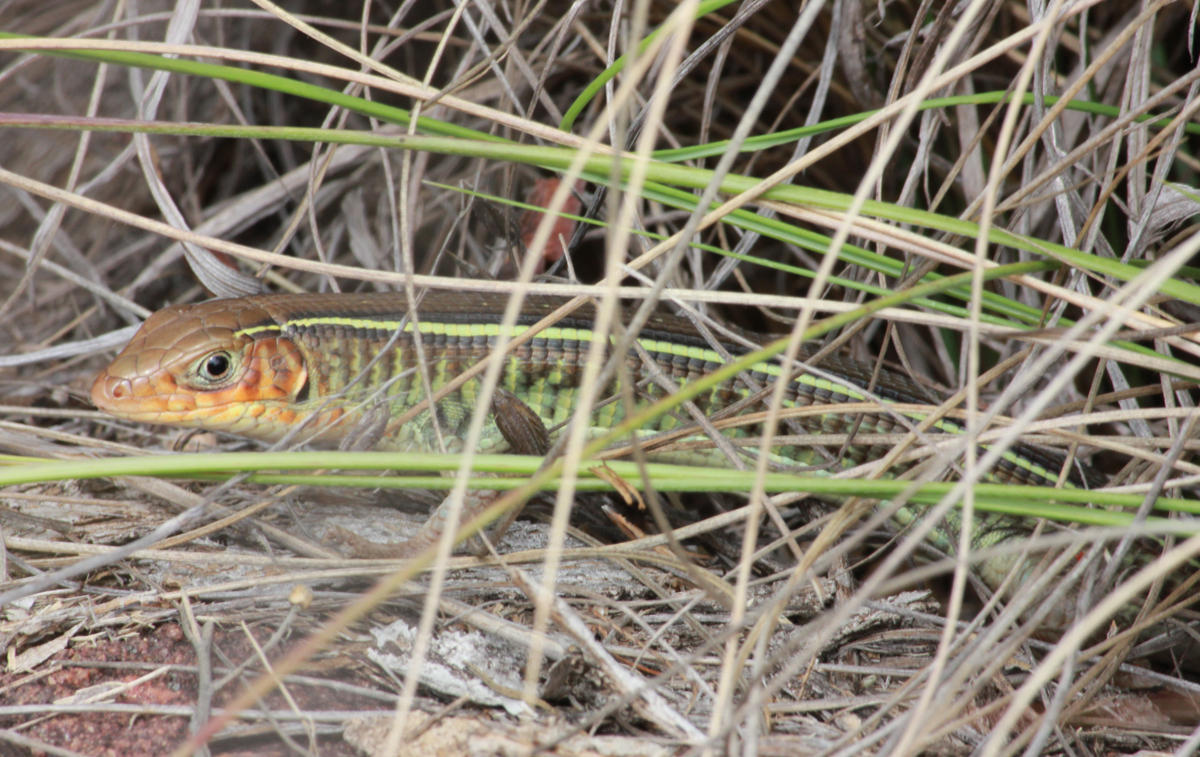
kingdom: Animalia
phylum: Chordata
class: Squamata
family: Gerrhosauridae
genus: Gerrhosaurus
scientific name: Gerrhosaurus flavigularis
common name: Yellow-throated plated lizard
